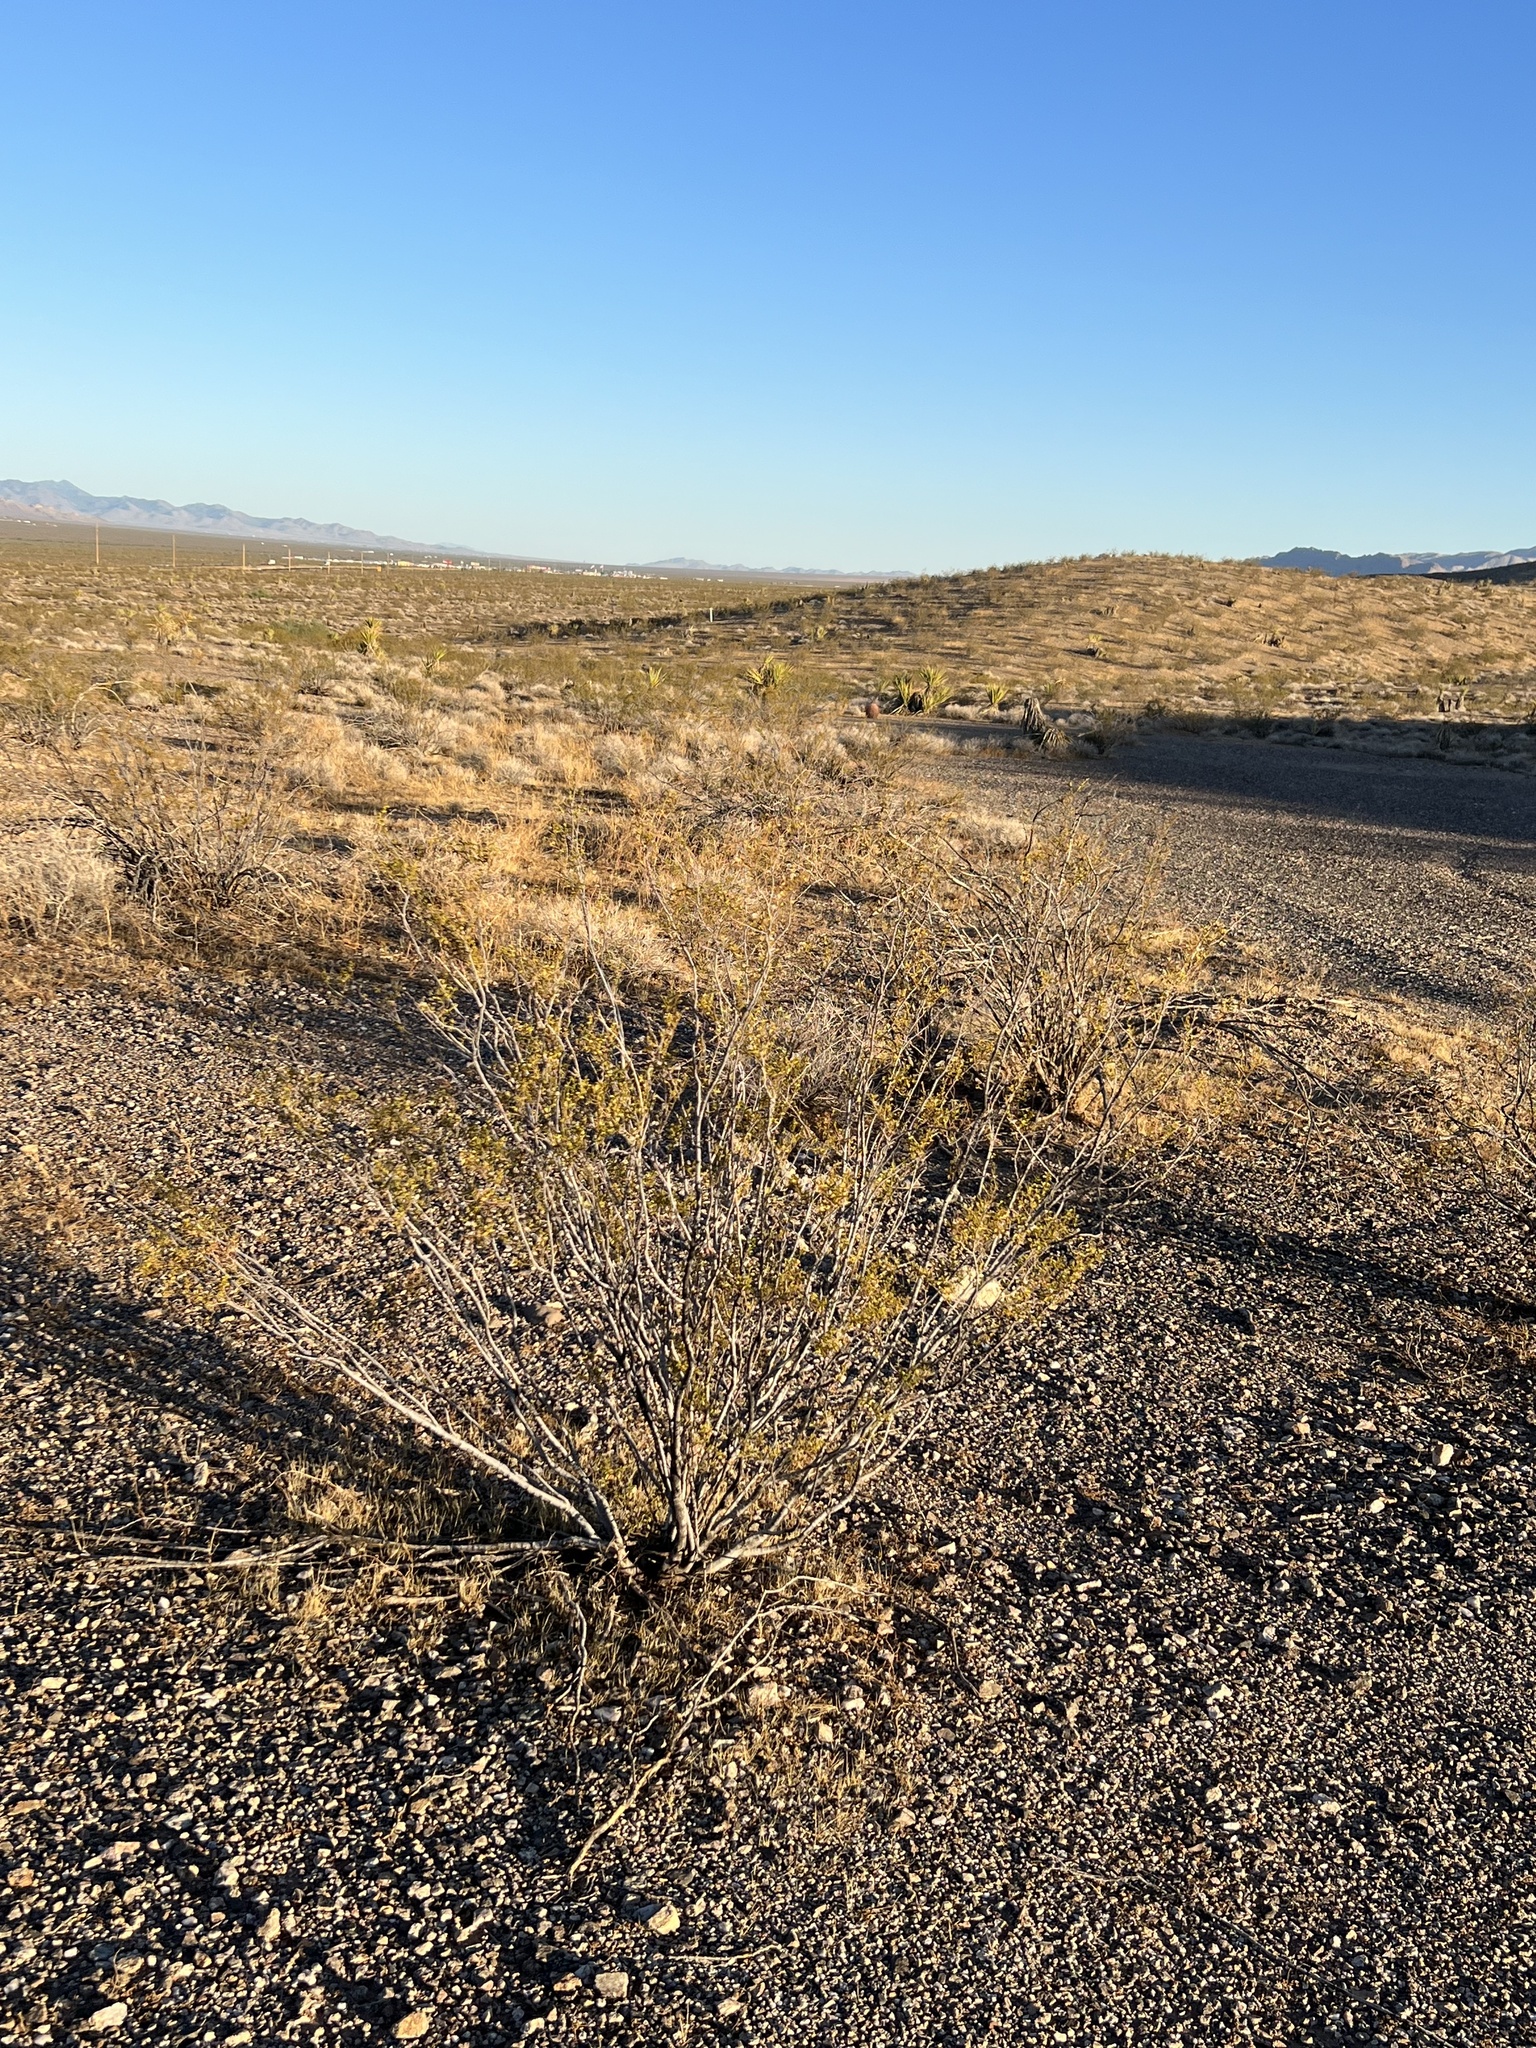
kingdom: Plantae
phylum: Tracheophyta
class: Magnoliopsida
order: Zygophyllales
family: Zygophyllaceae
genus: Larrea
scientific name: Larrea tridentata
